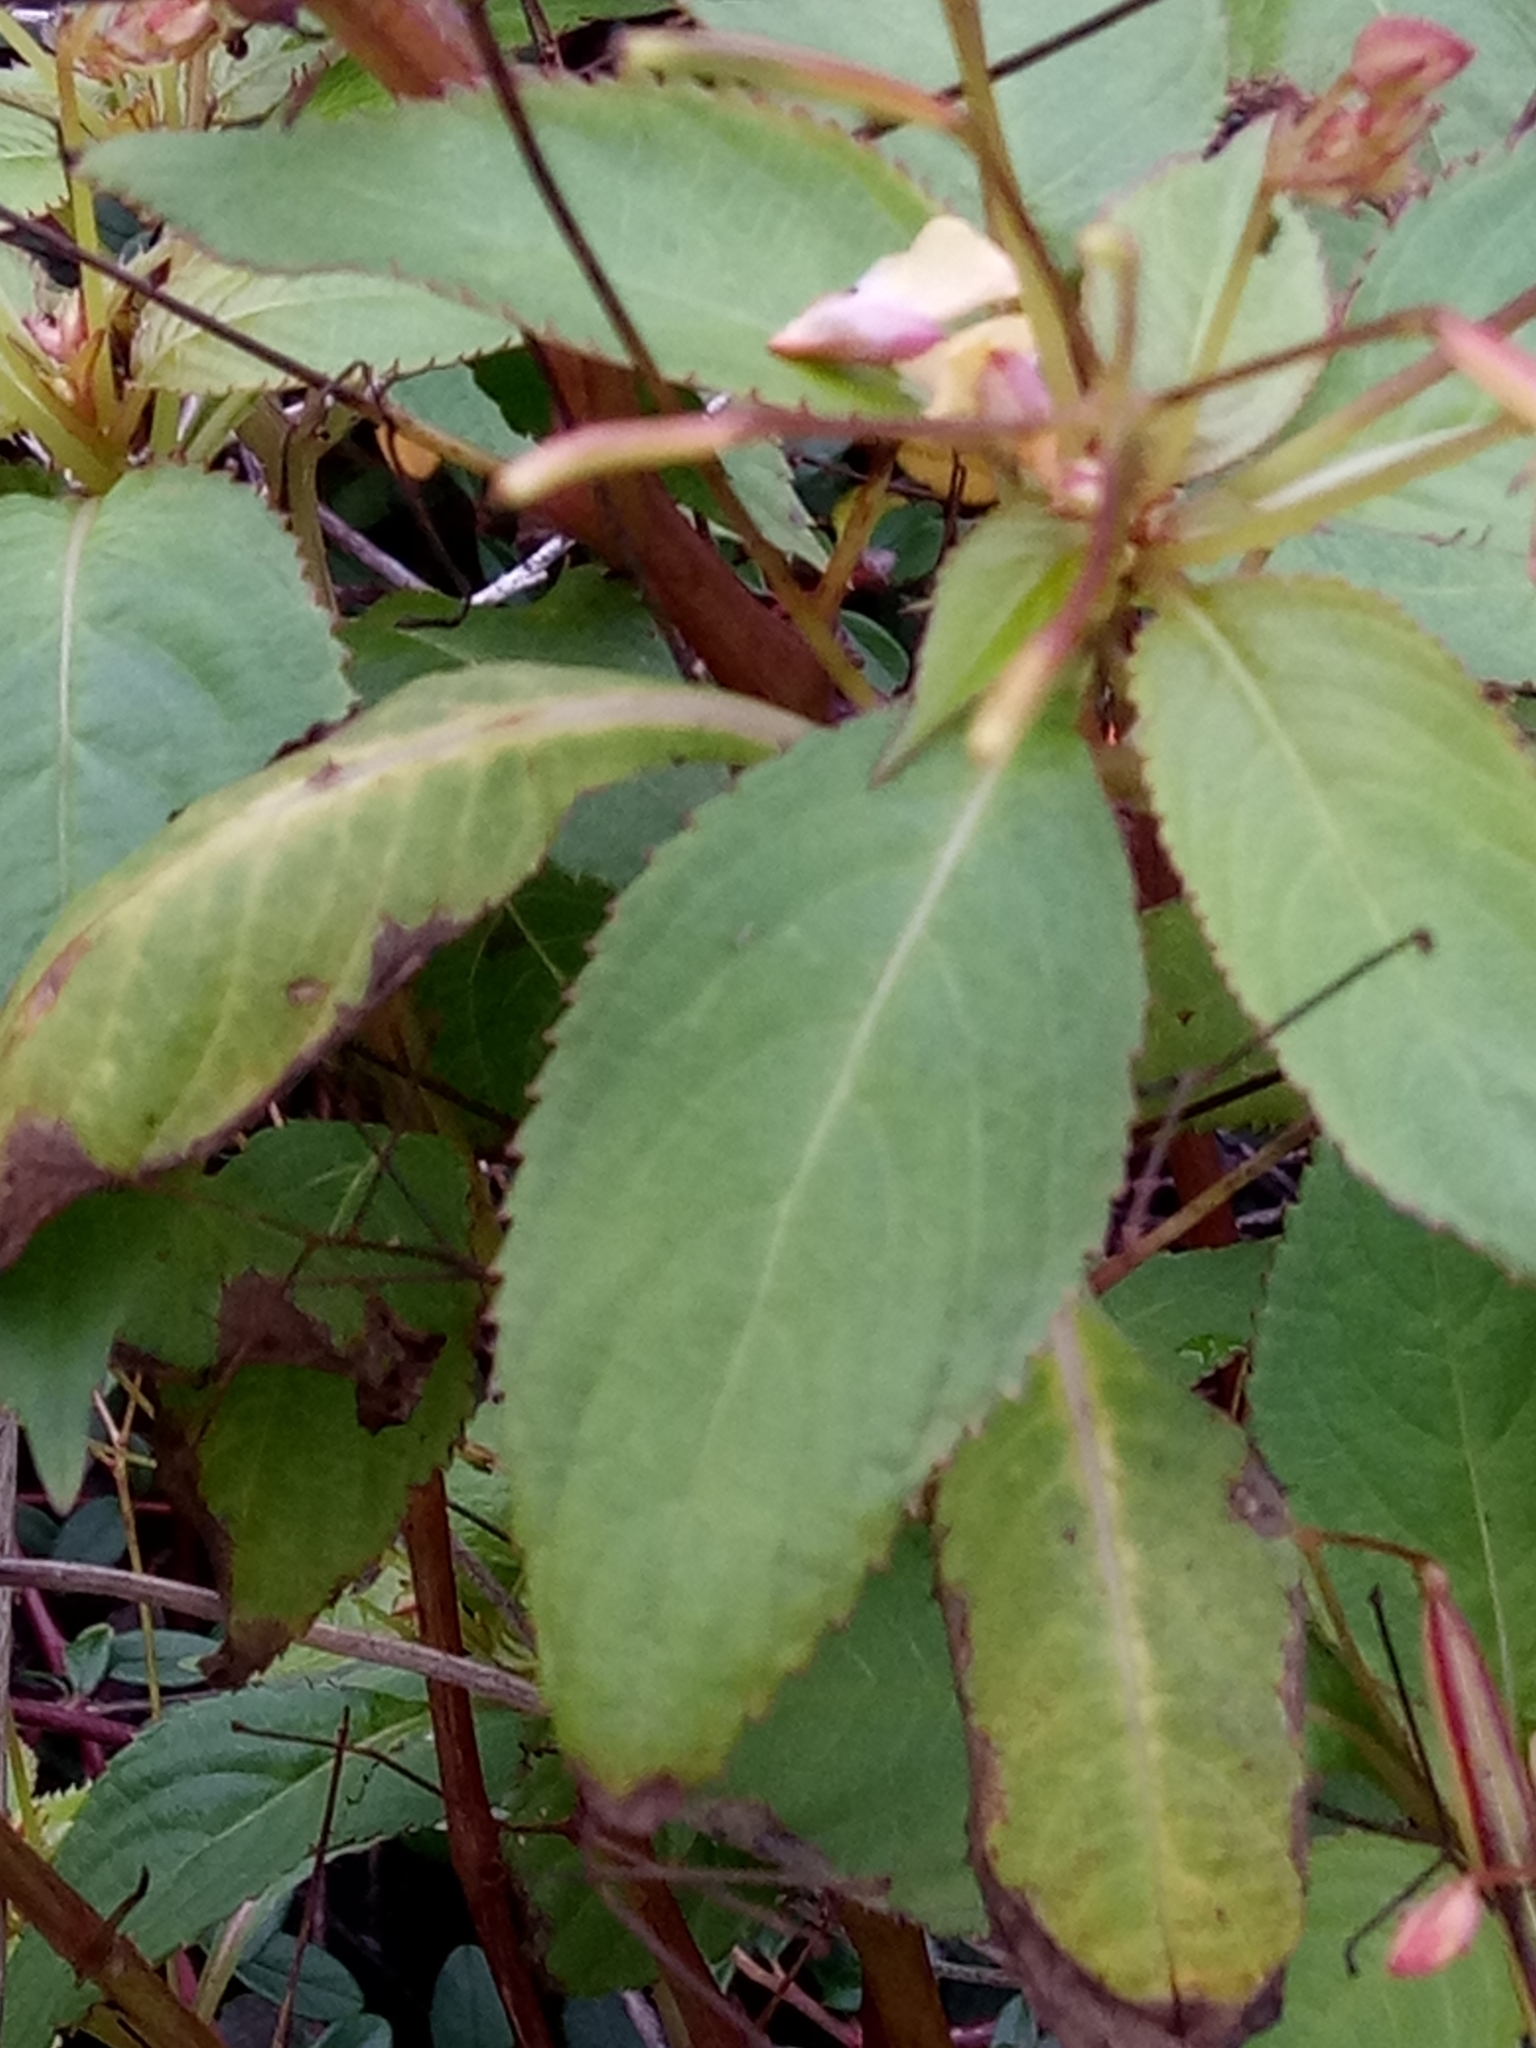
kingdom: Plantae
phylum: Tracheophyta
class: Magnoliopsida
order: Ericales
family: Balsaminaceae
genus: Impatiens
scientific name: Impatiens parviflora
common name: Small balsam
